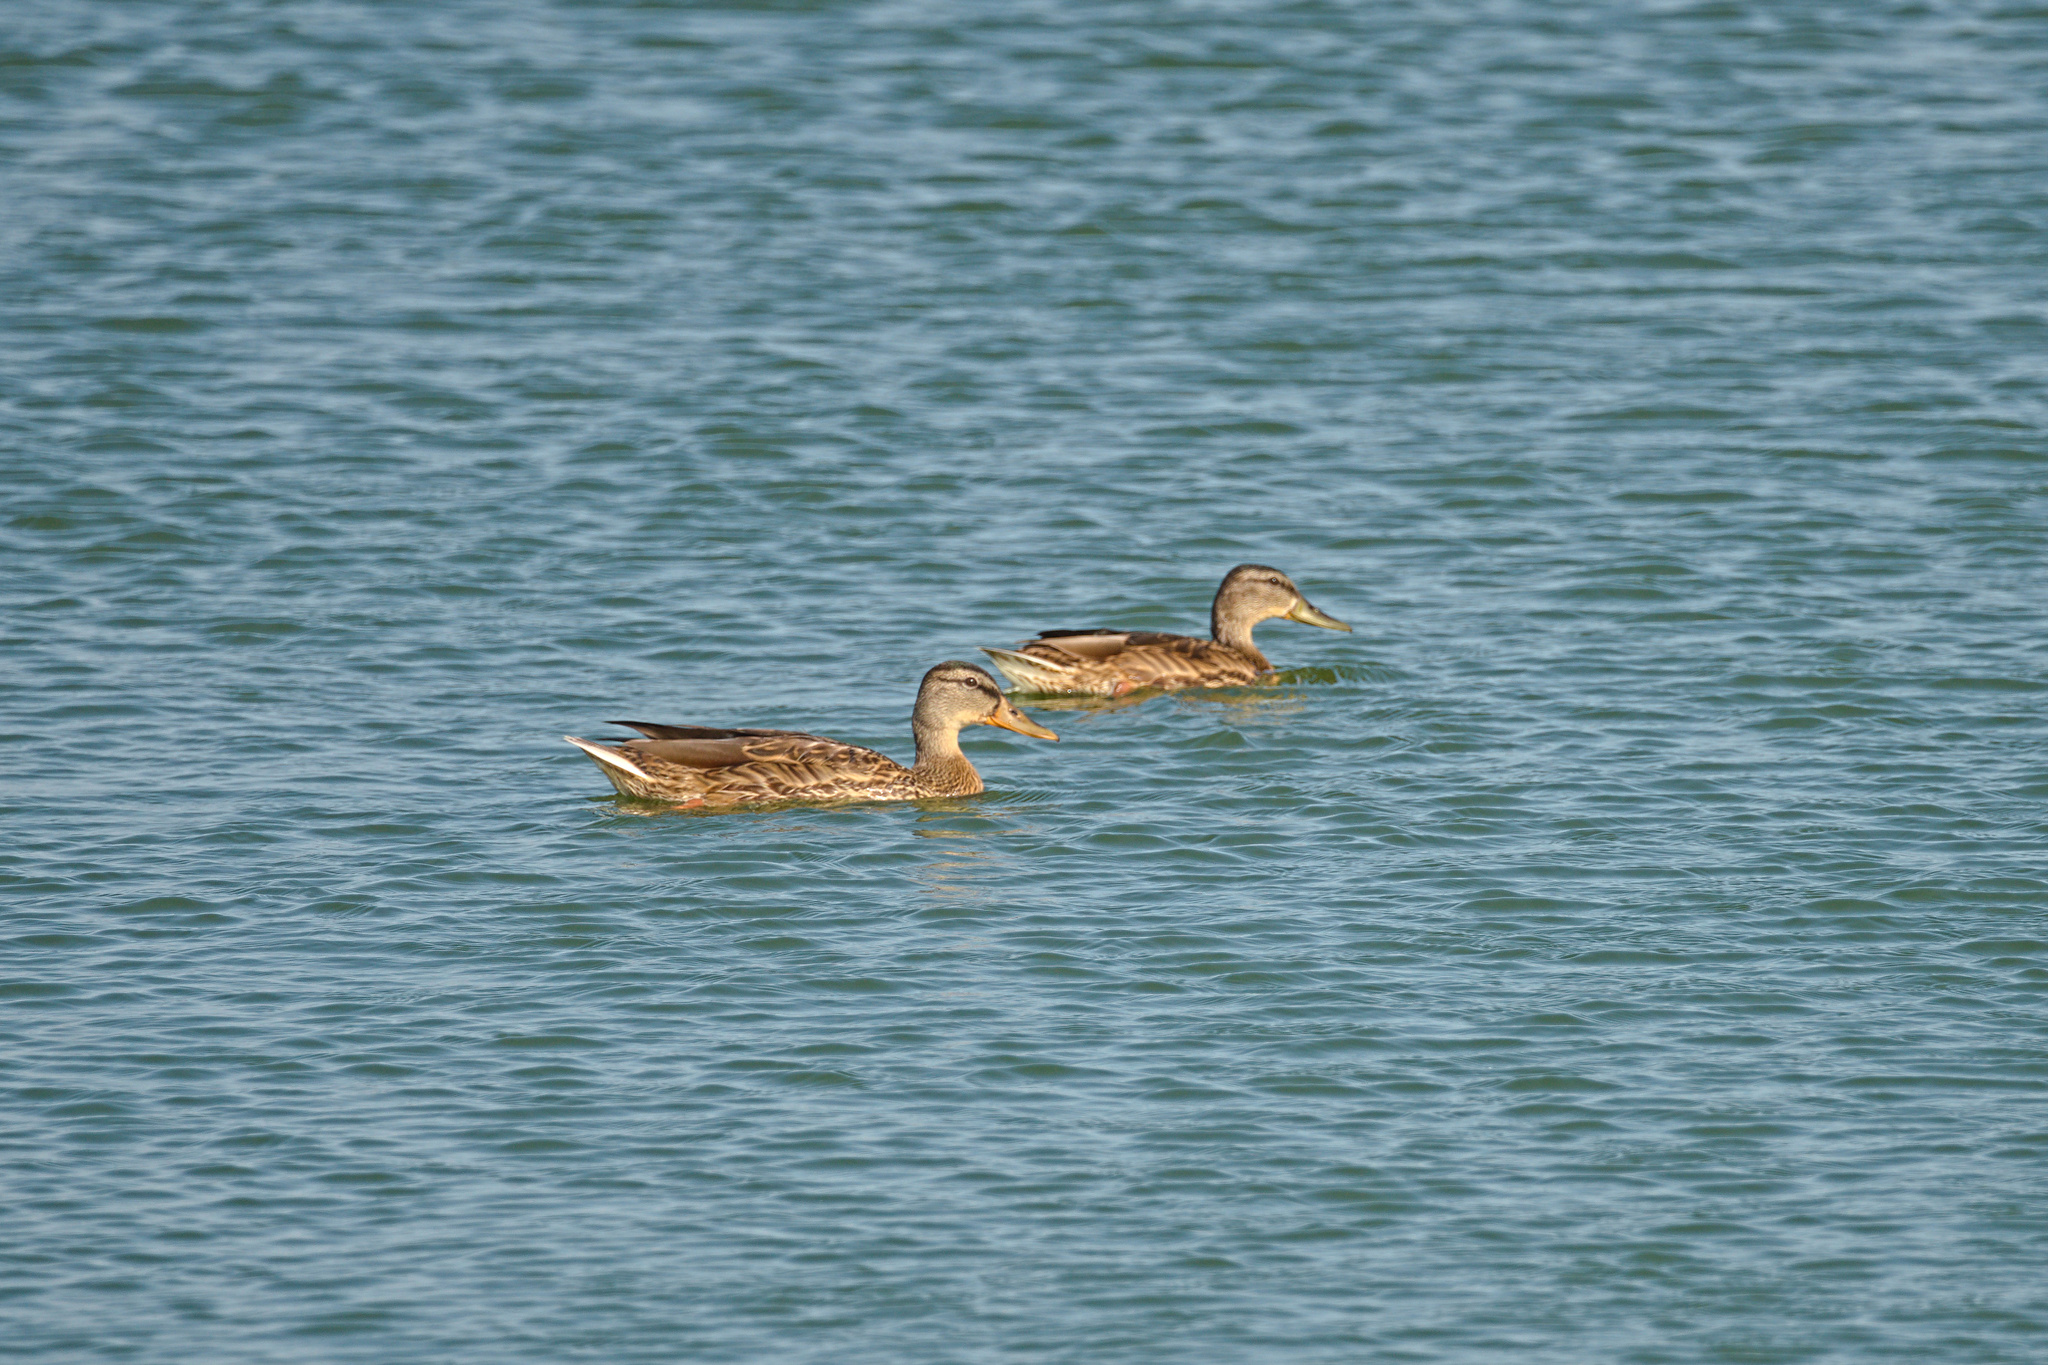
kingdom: Animalia
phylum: Chordata
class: Aves
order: Anseriformes
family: Anatidae
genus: Anas
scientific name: Anas platyrhynchos
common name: Mallard
